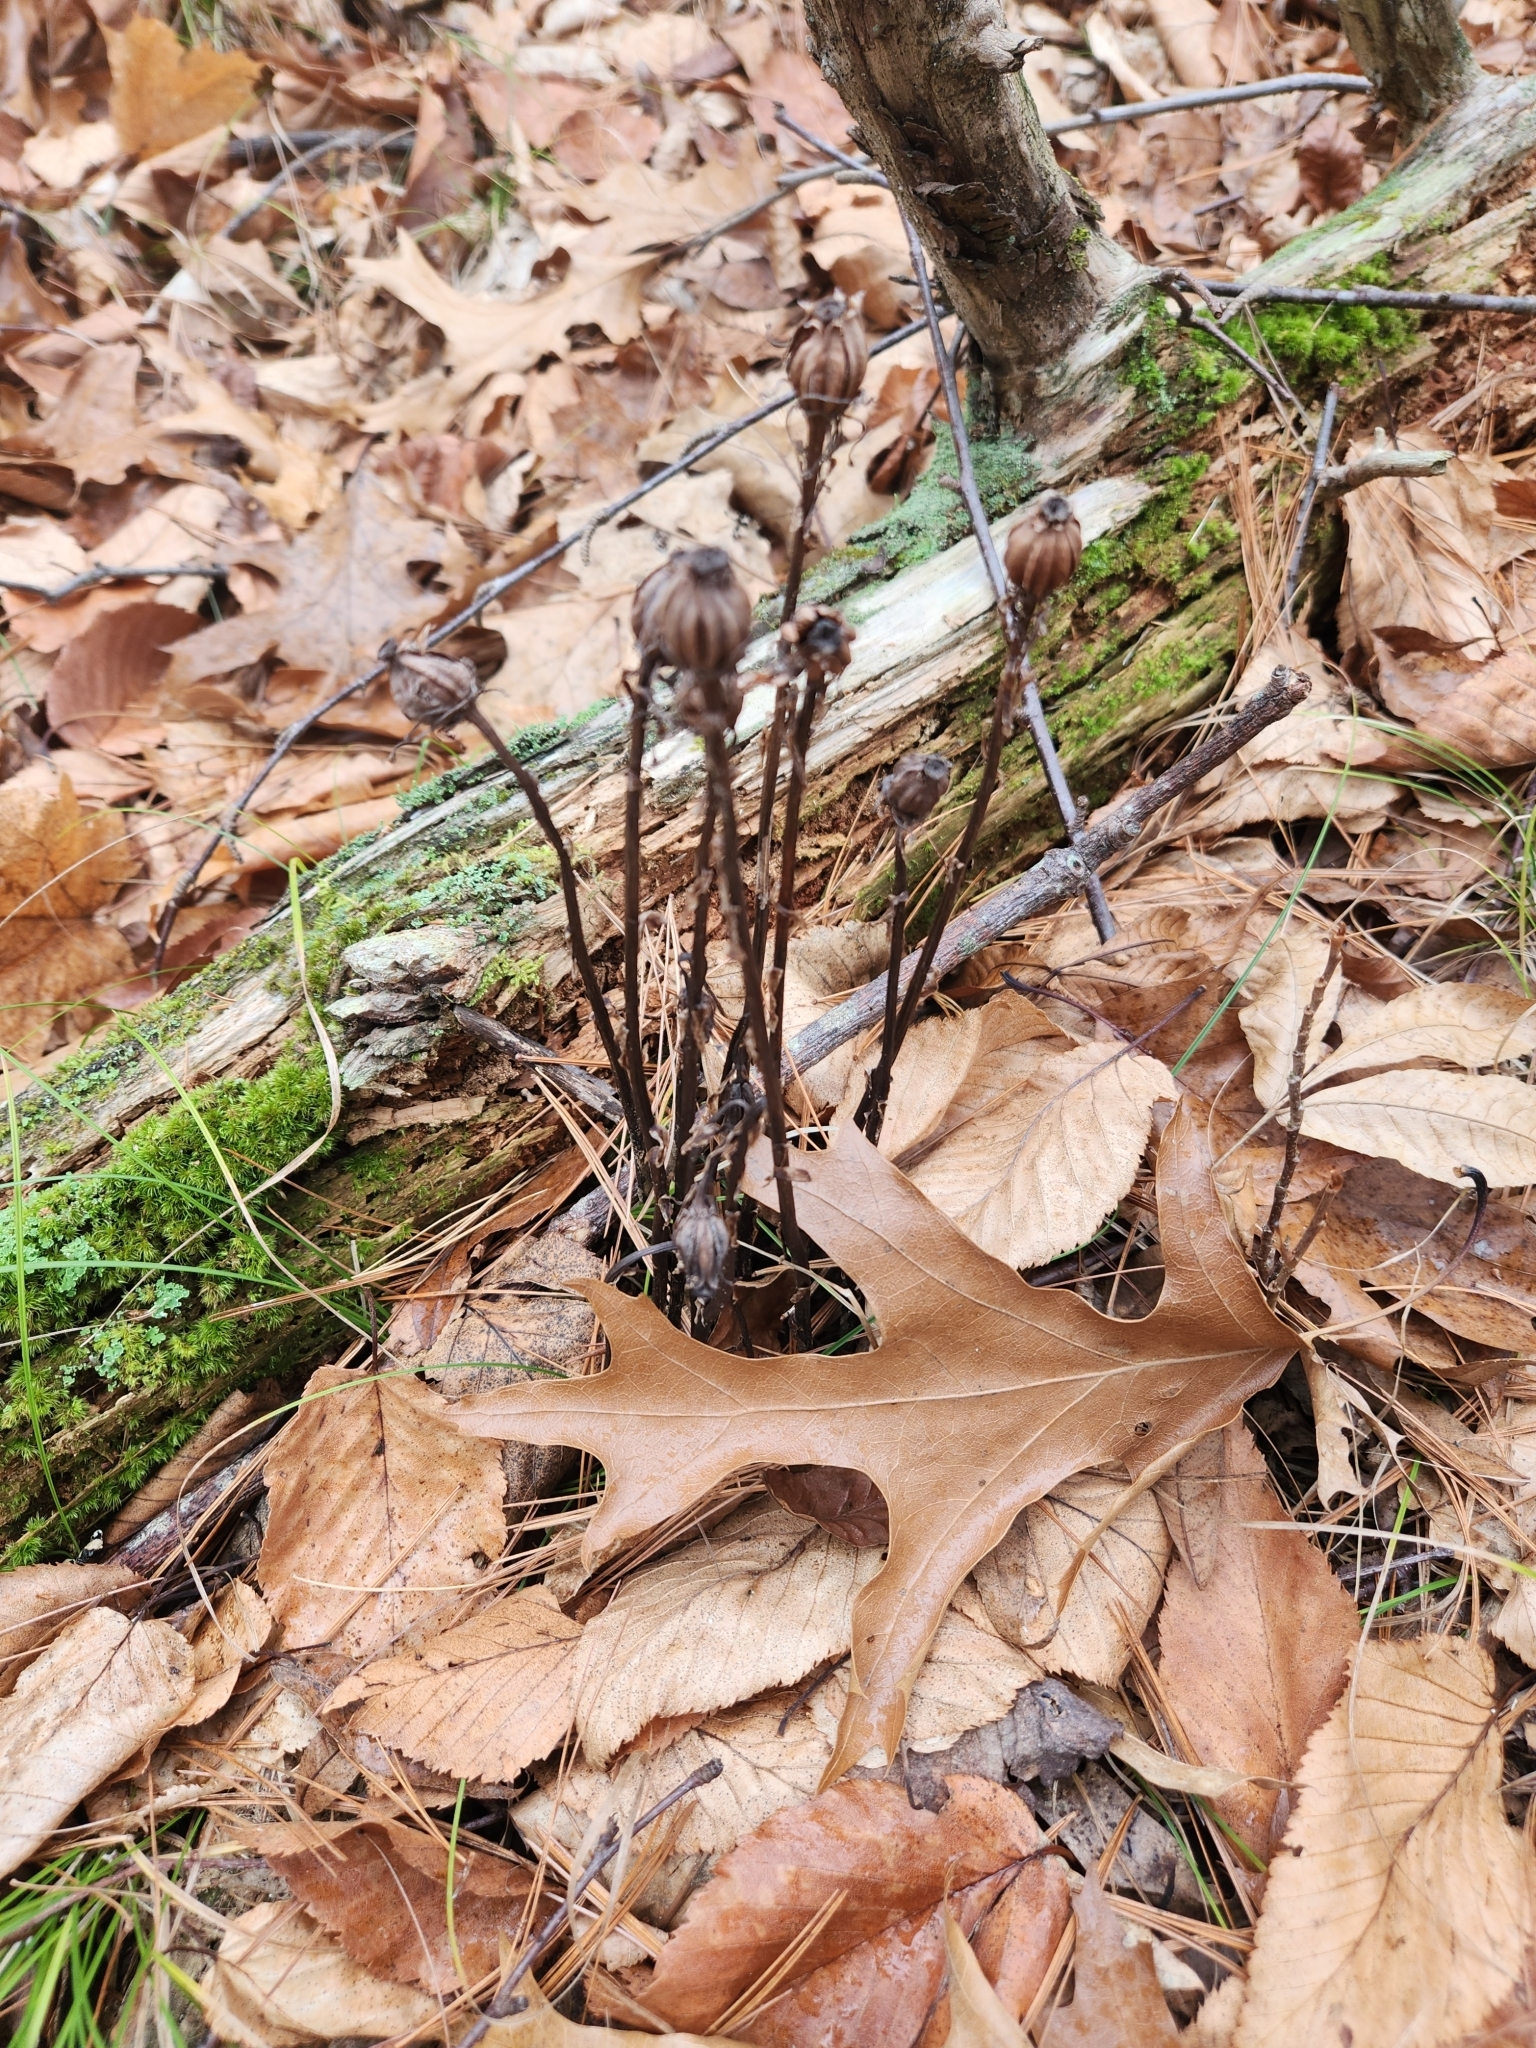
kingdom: Plantae
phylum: Tracheophyta
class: Magnoliopsida
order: Ericales
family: Ericaceae
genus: Monotropa
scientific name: Monotropa uniflora
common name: Convulsion root
